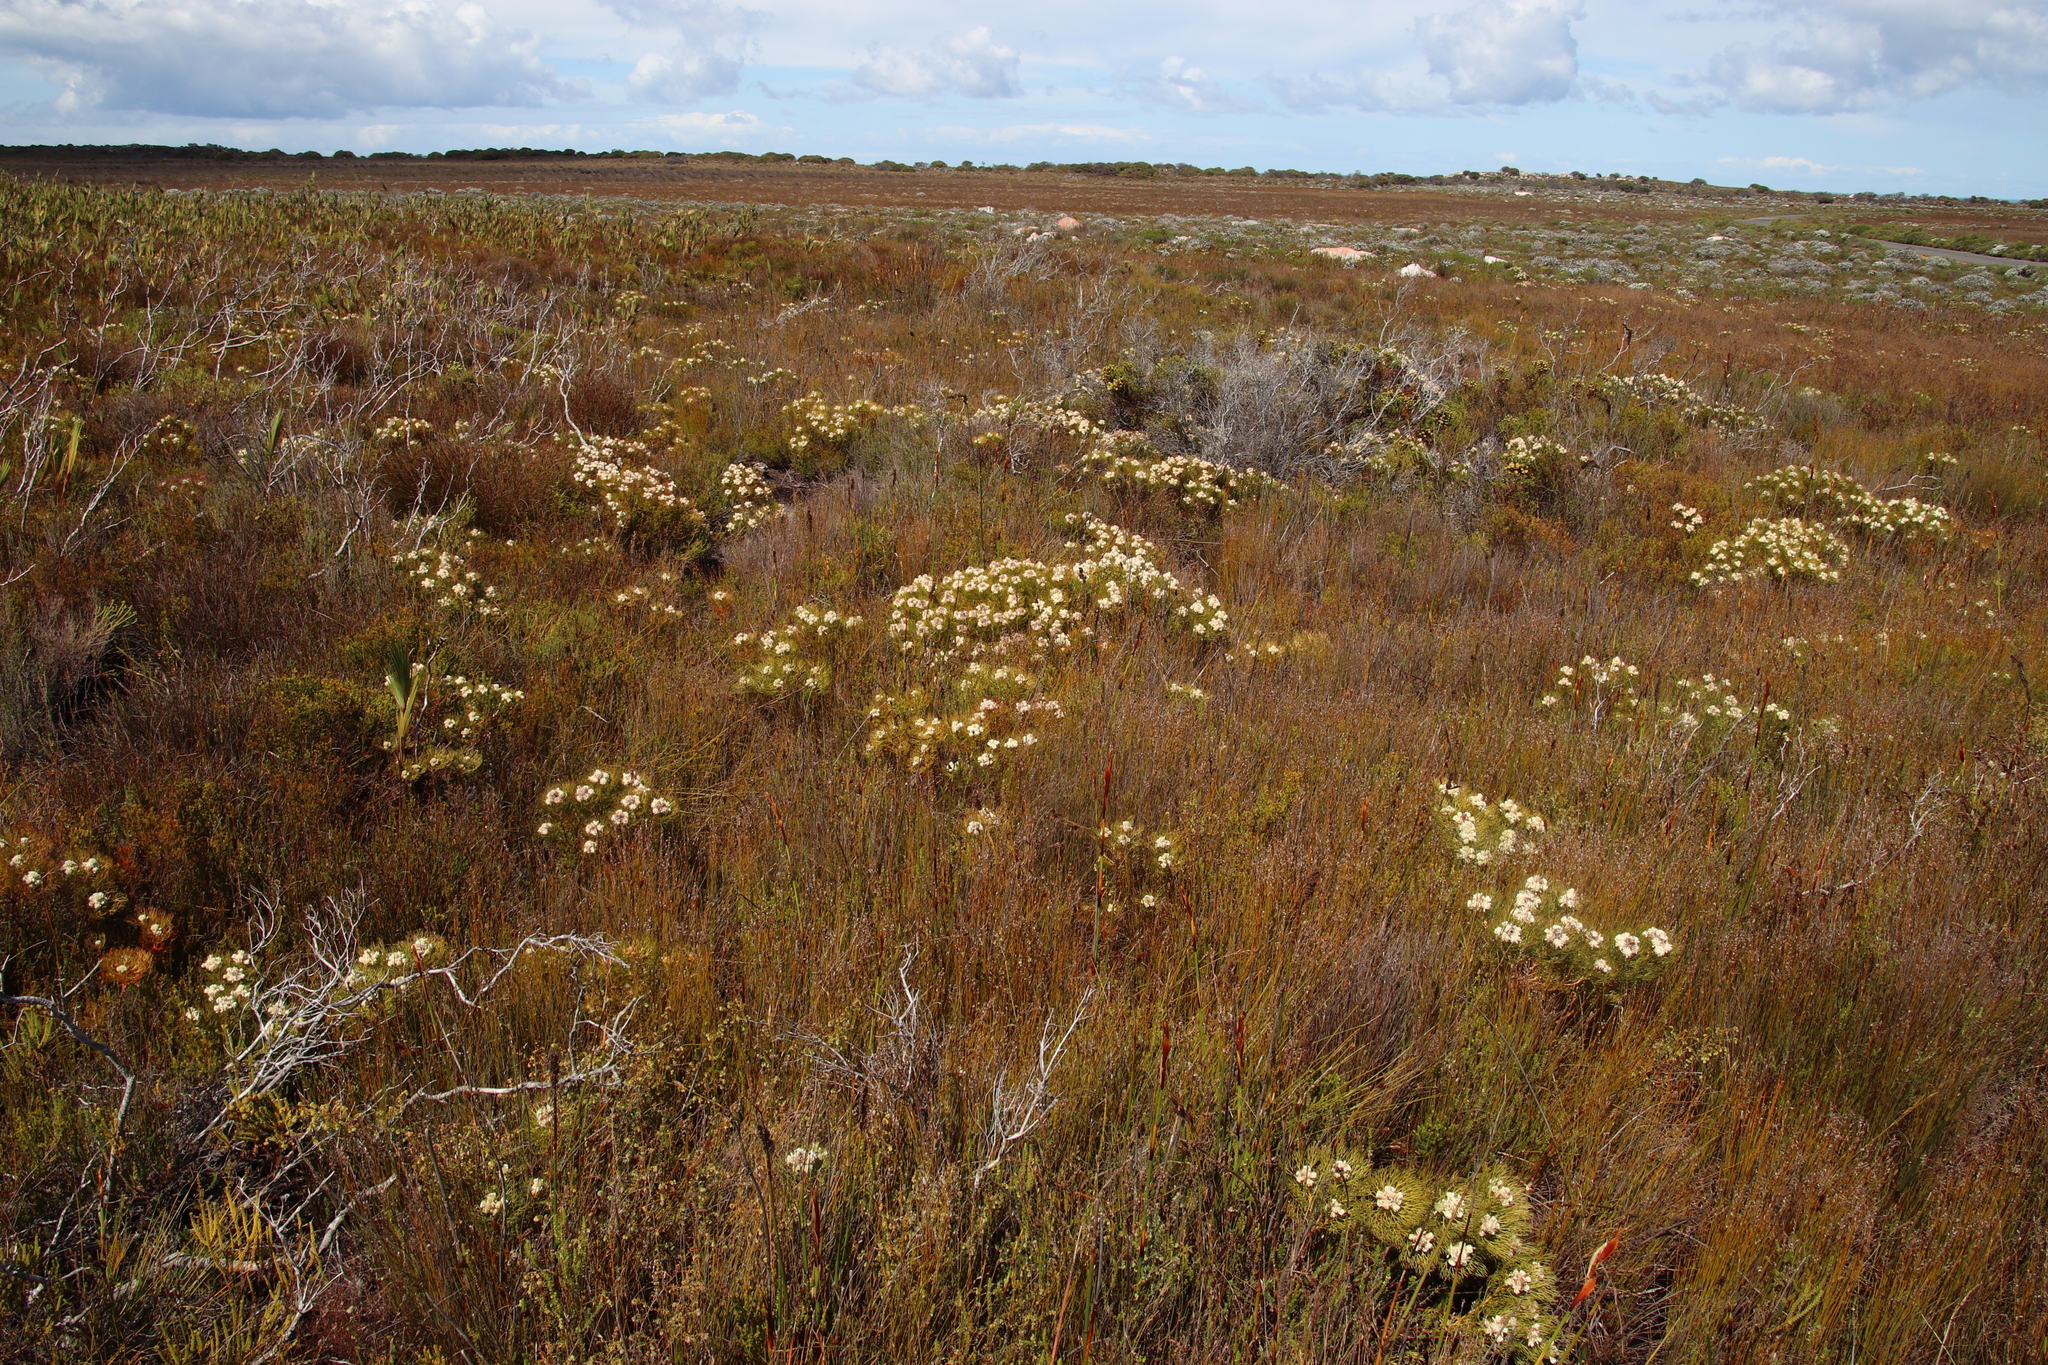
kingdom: Plantae
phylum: Tracheophyta
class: Magnoliopsida
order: Proteales
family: Proteaceae
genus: Serruria
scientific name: Serruria glomerata
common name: Cluster spiderhead
